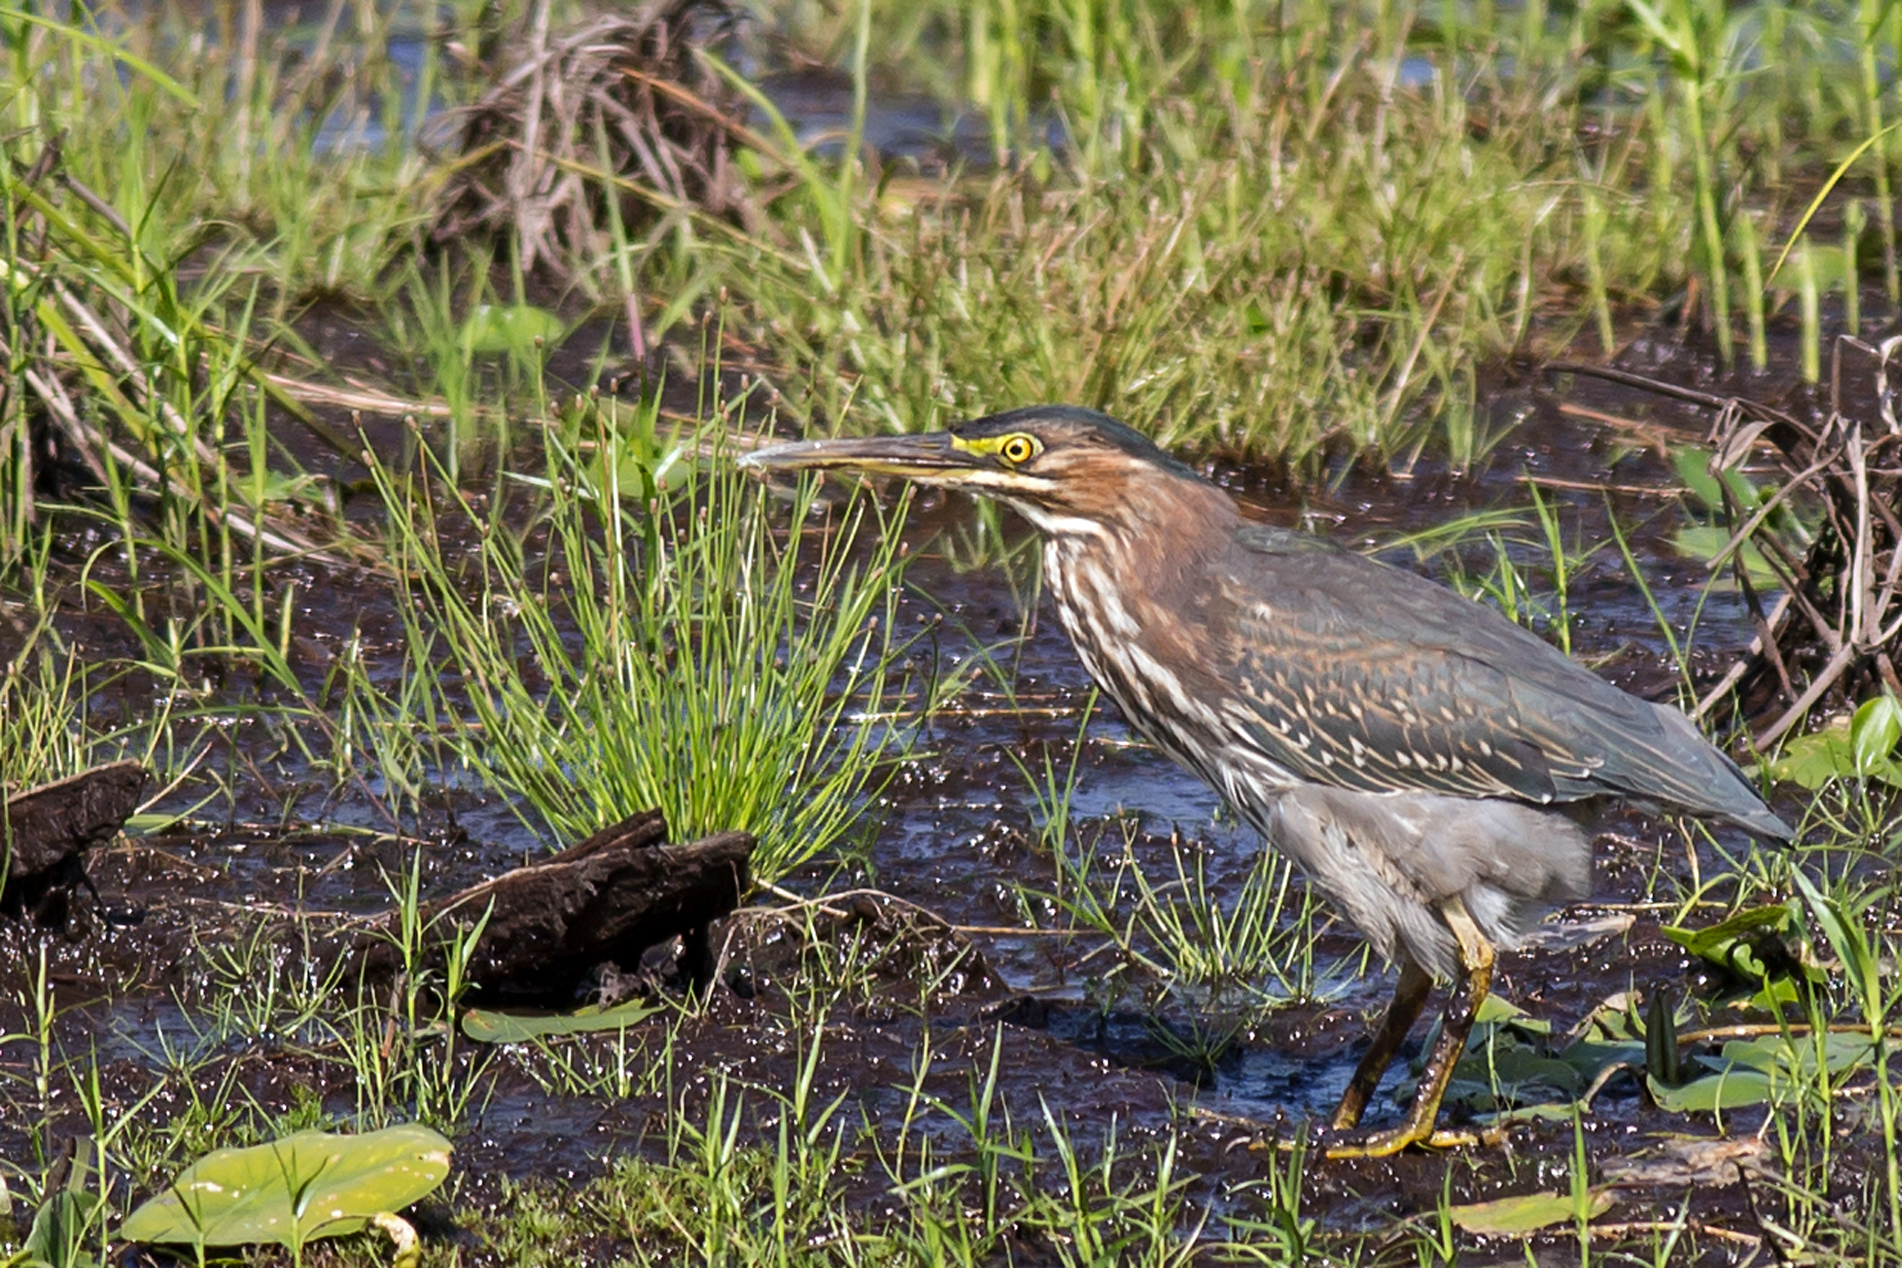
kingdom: Animalia
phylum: Chordata
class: Aves
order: Pelecaniformes
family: Ardeidae
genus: Butorides
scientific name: Butorides virescens
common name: Green heron
